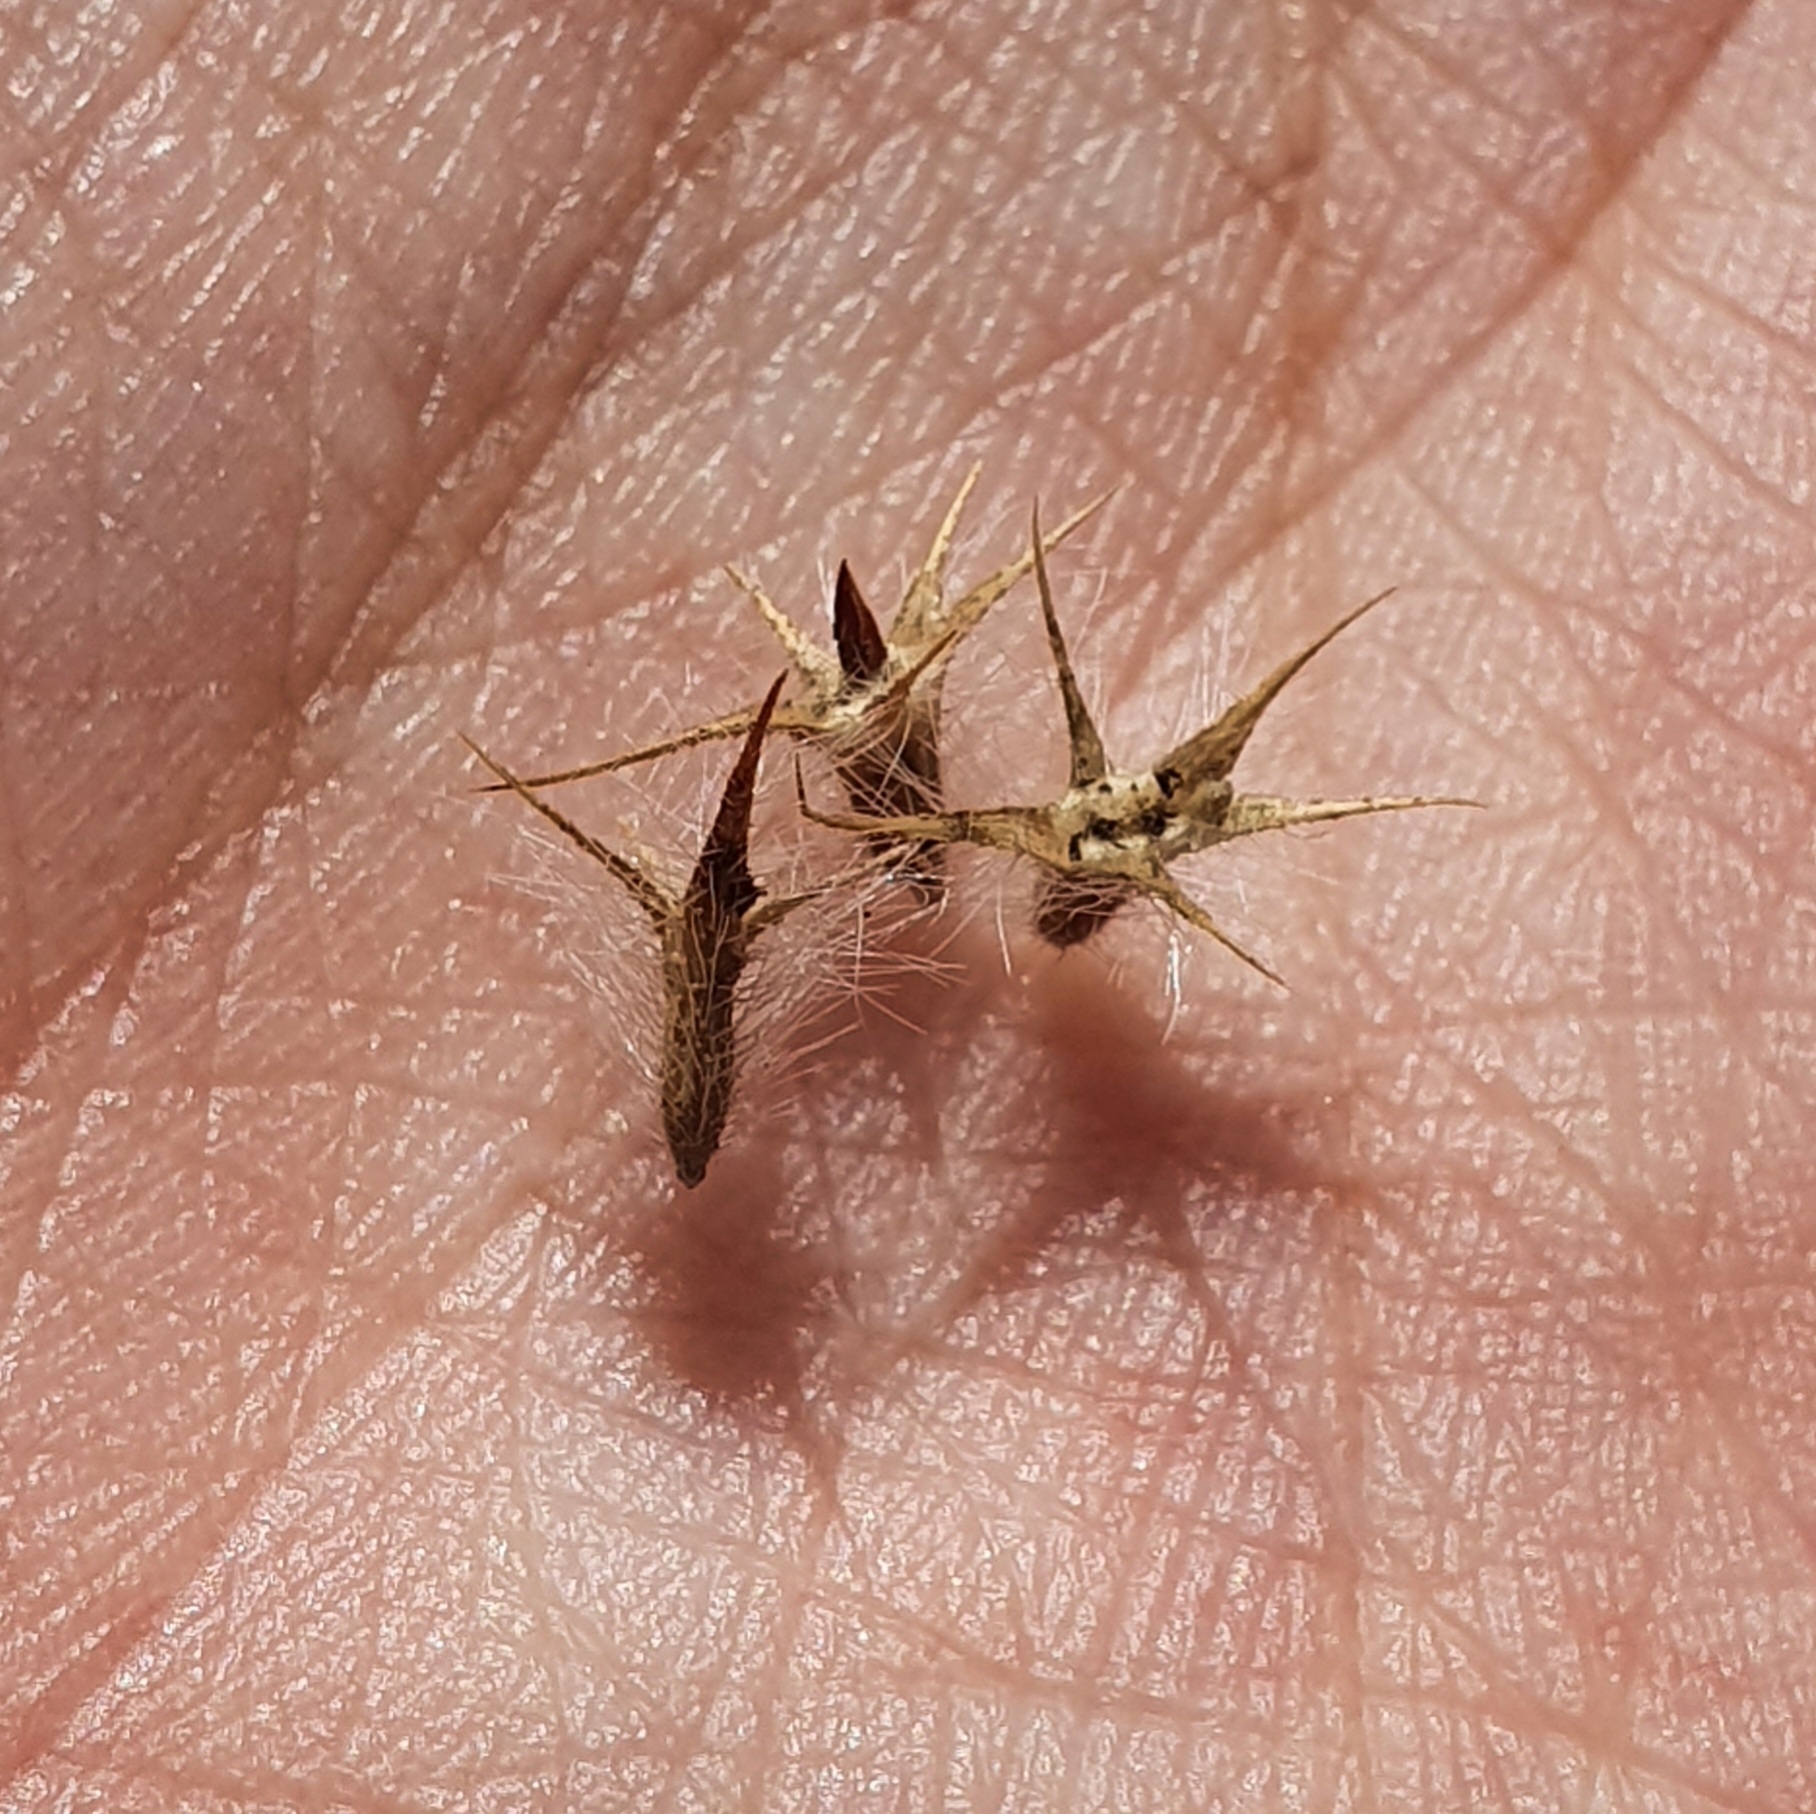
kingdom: Plantae
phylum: Tracheophyta
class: Magnoliopsida
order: Fabales
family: Fabaceae
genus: Trifolium
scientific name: Trifolium angustifolium
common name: Narrow clover
